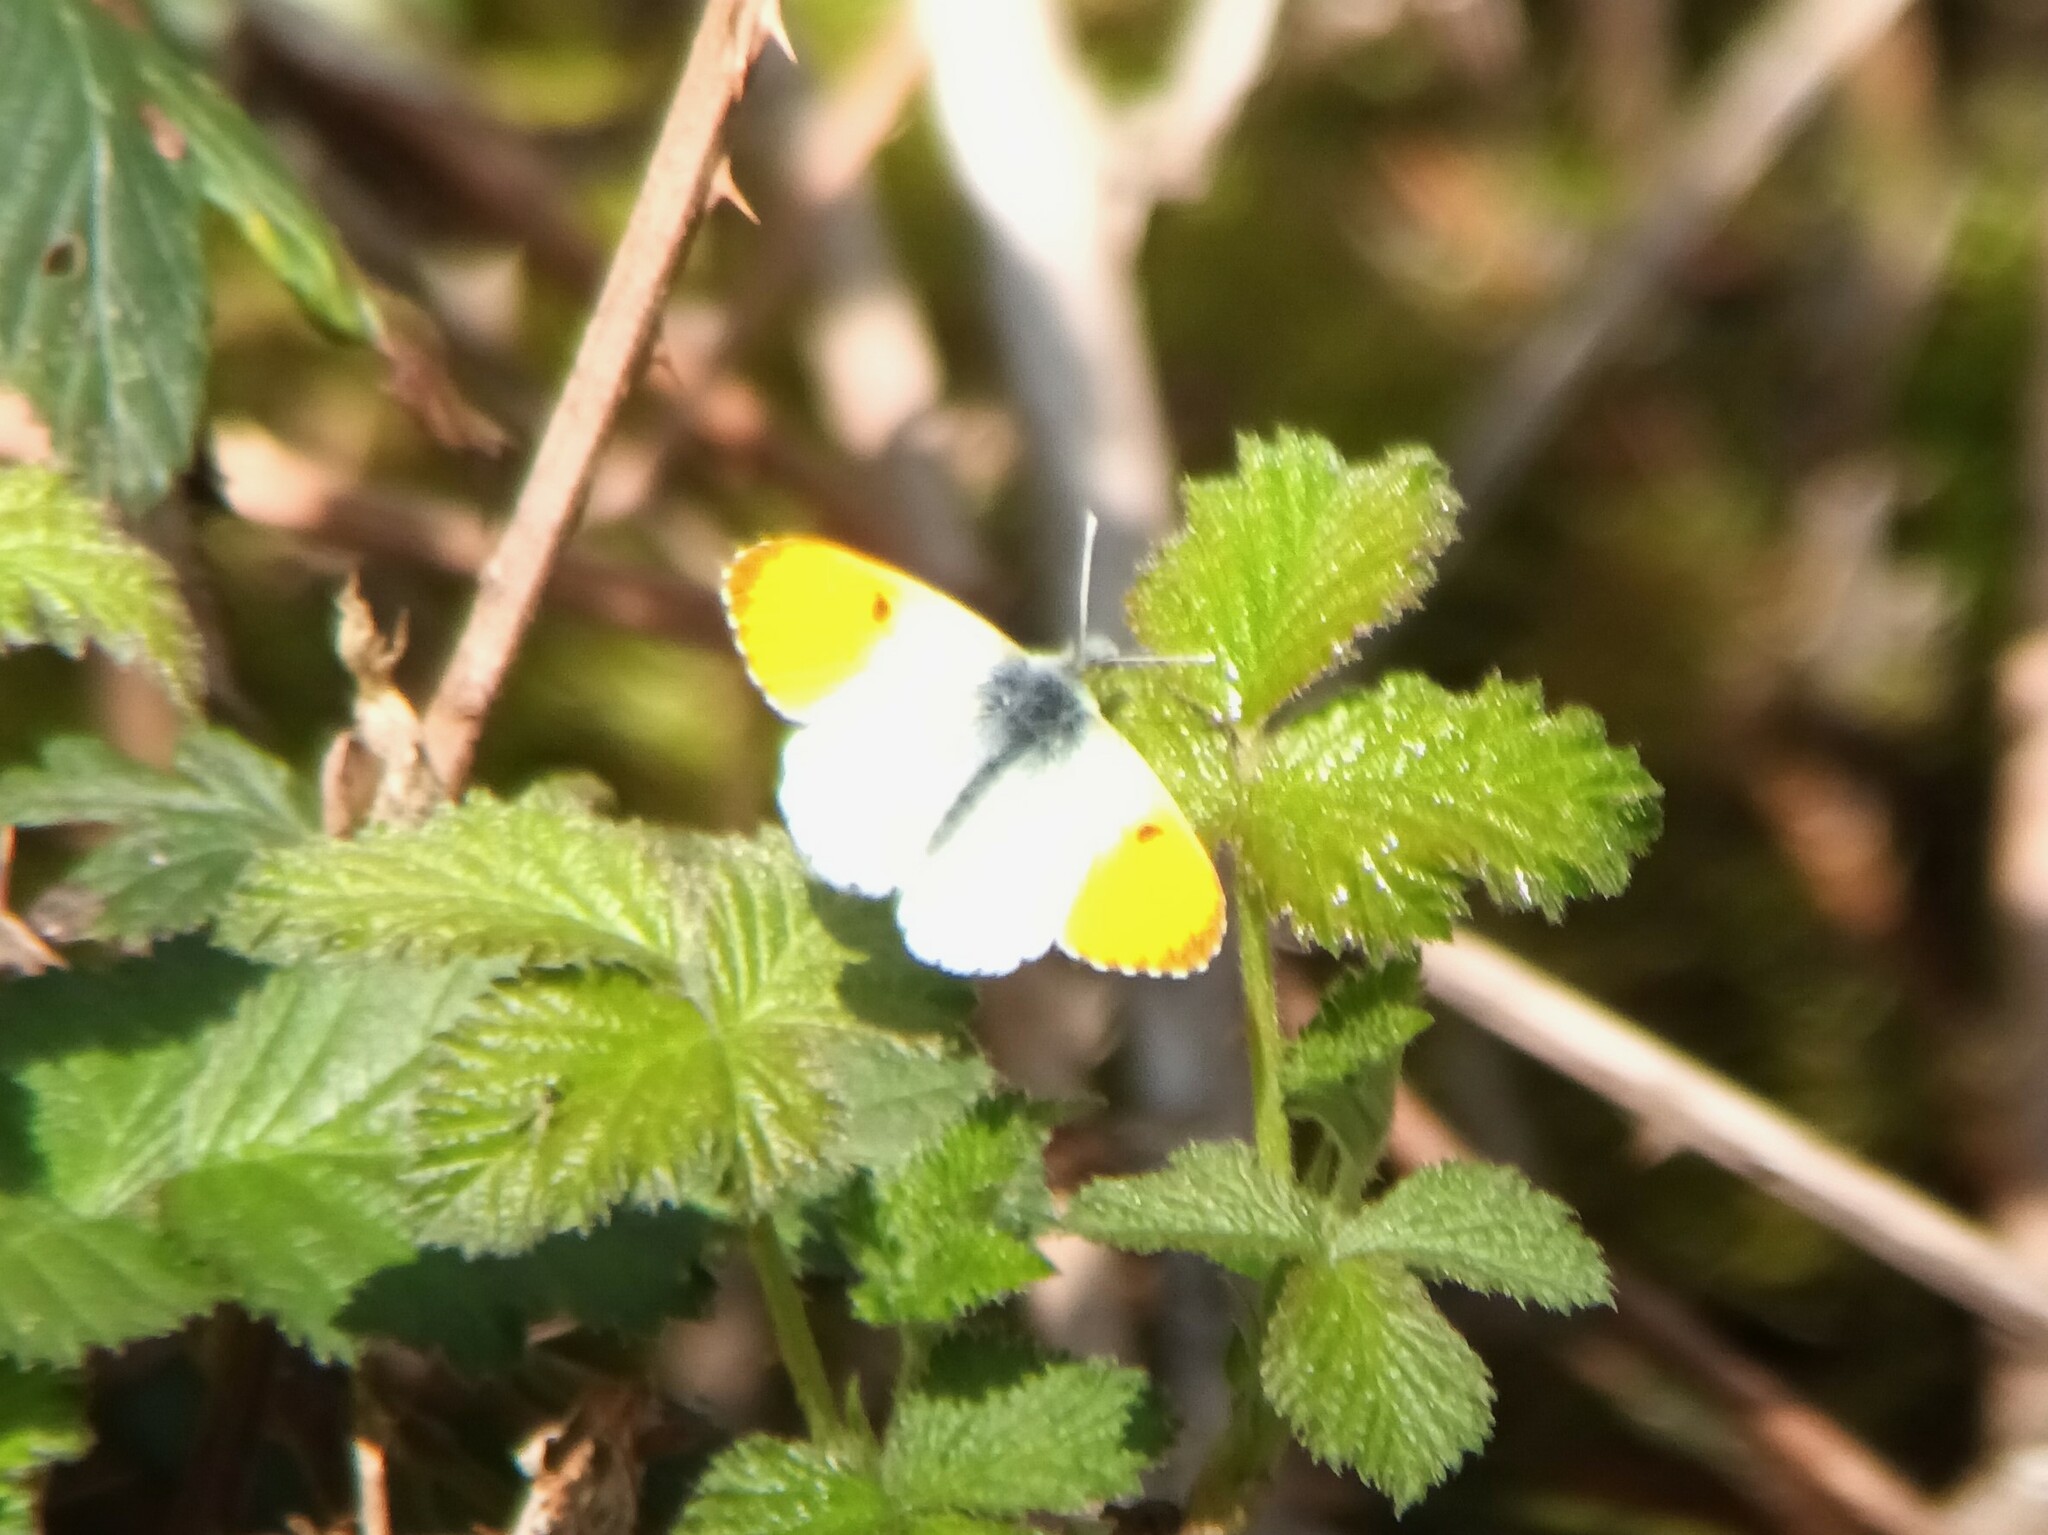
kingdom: Animalia
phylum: Arthropoda
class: Insecta
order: Lepidoptera
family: Pieridae
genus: Anthocharis
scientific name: Anthocharis cardamines
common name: Orange-tip
